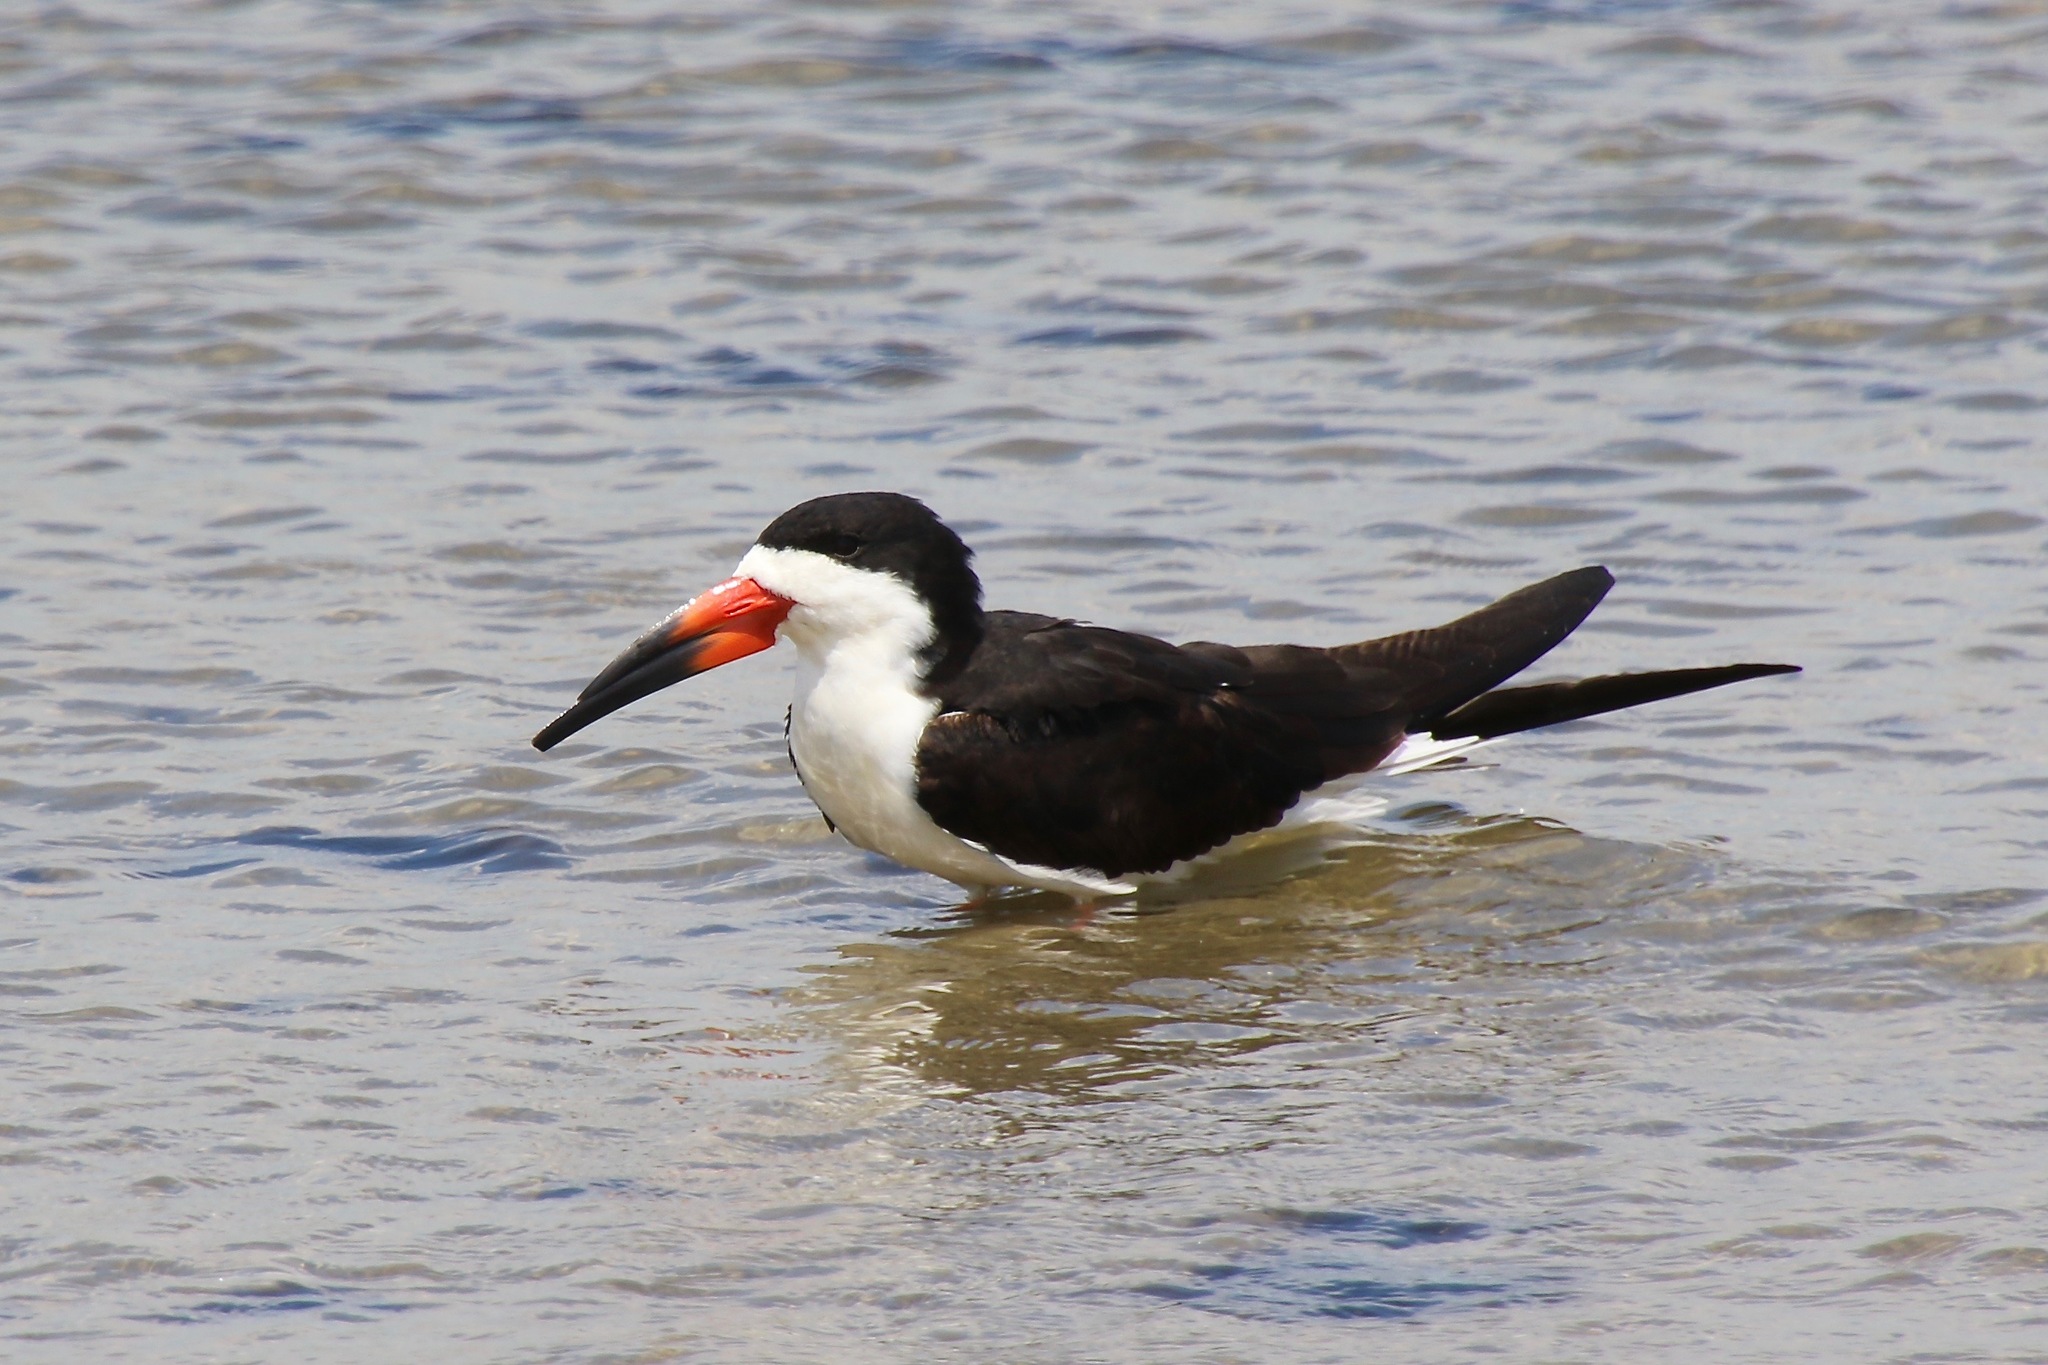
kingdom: Animalia
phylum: Chordata
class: Aves
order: Charadriiformes
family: Laridae
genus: Rynchops
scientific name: Rynchops niger
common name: Black skimmer
